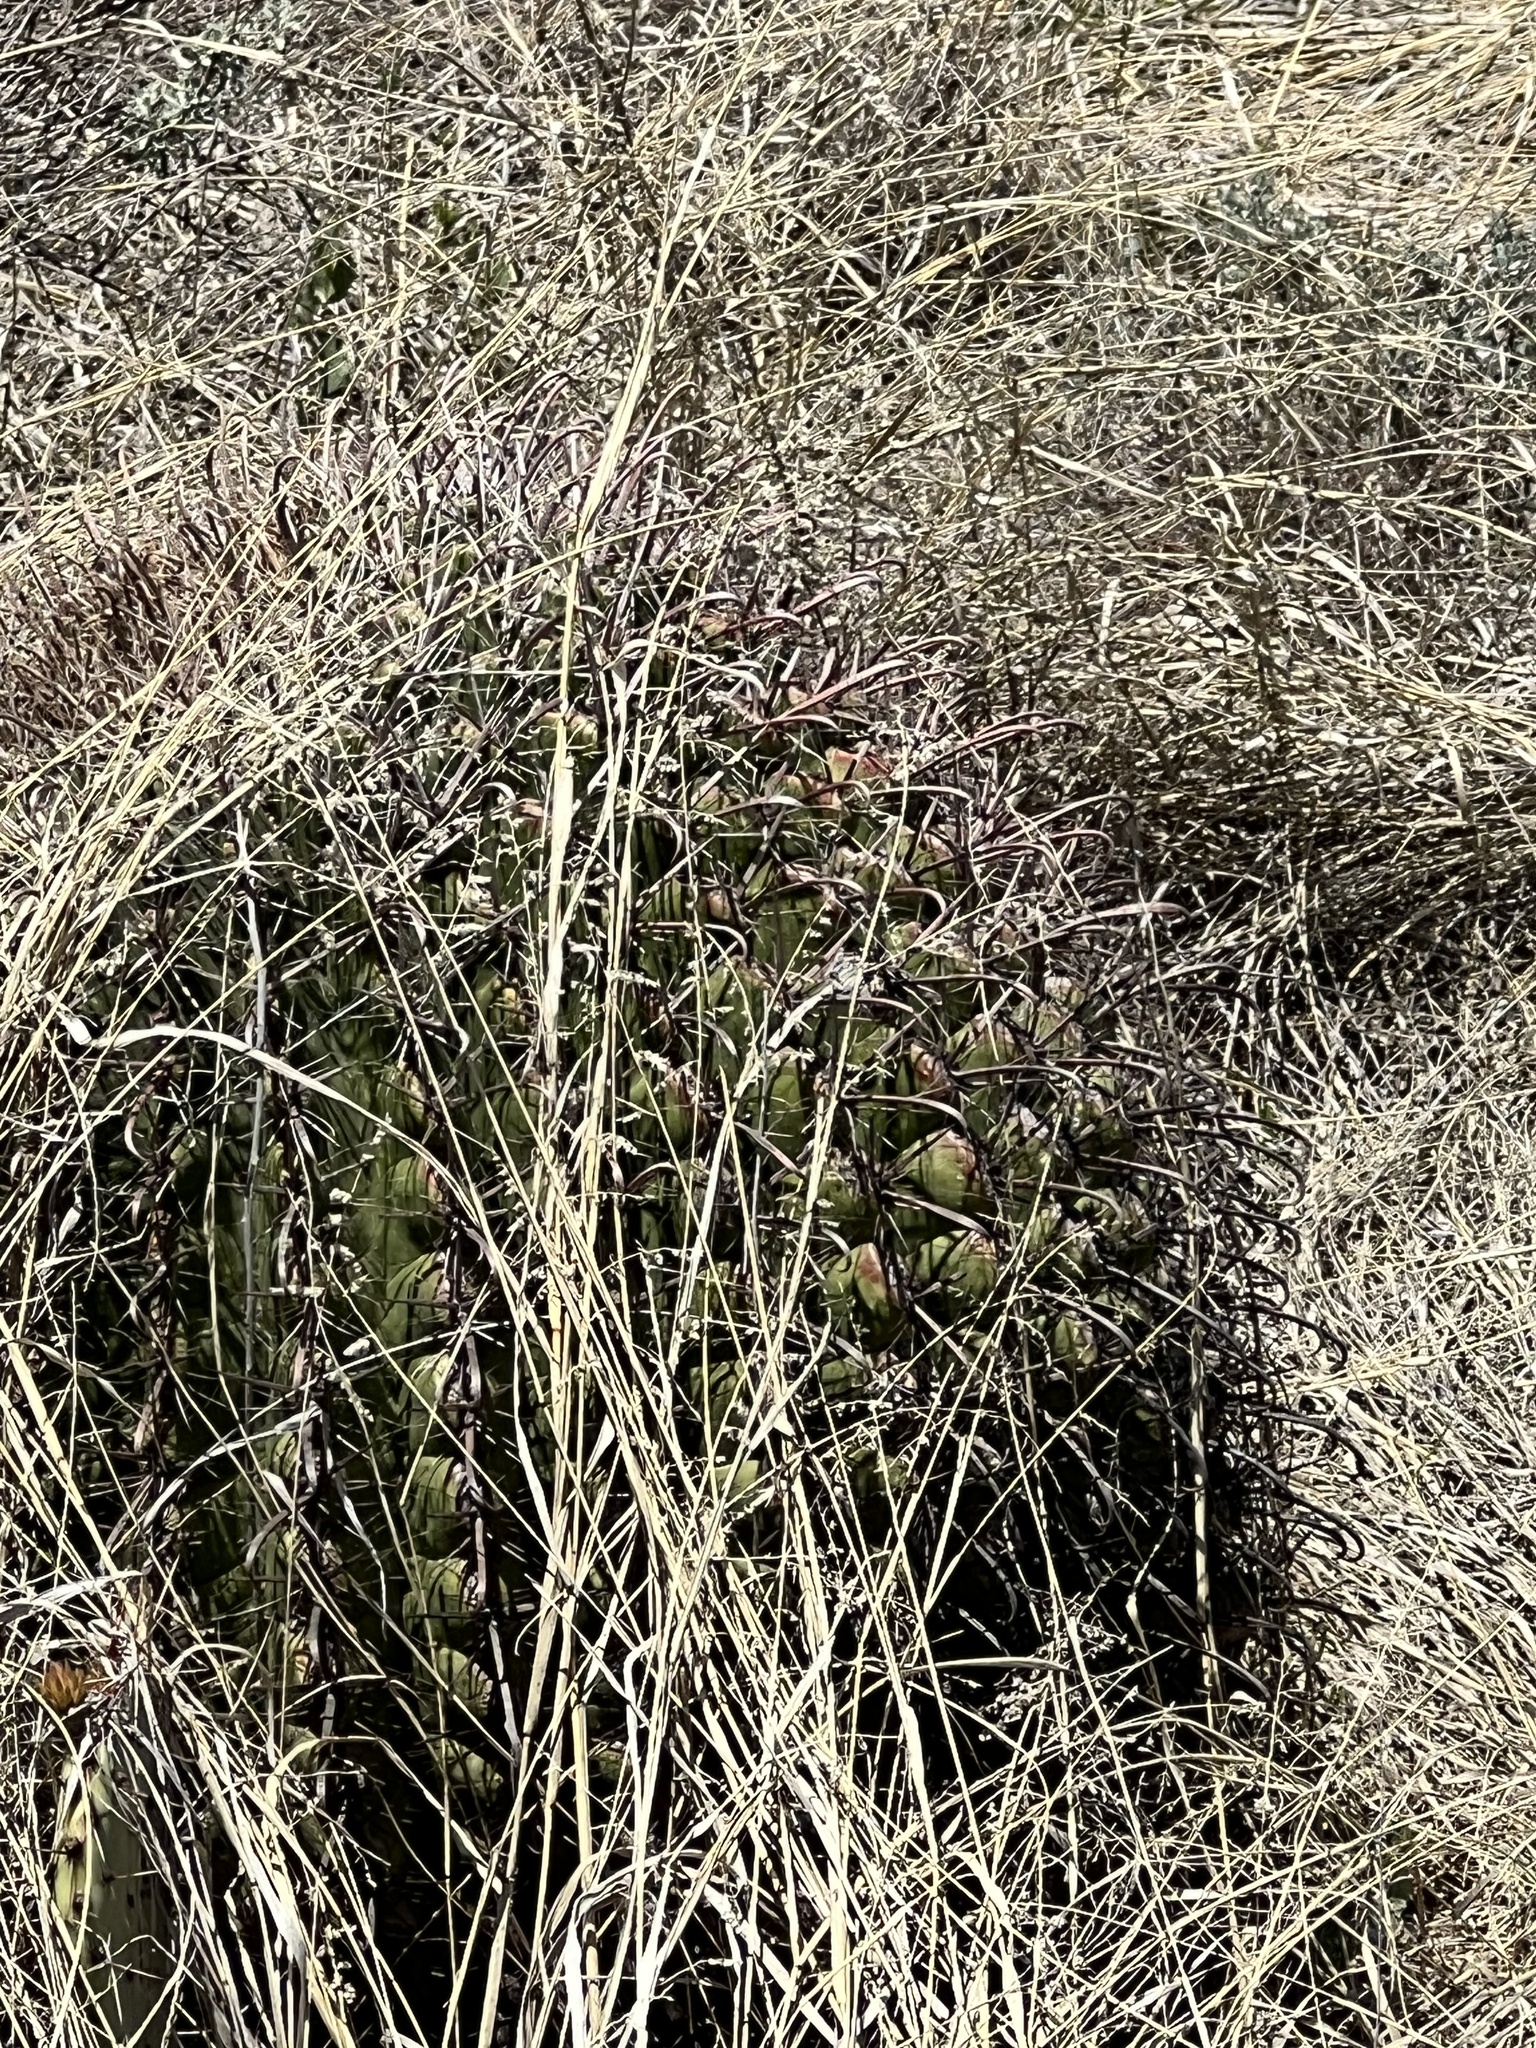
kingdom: Plantae
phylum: Tracheophyta
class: Magnoliopsida
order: Caryophyllales
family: Cactaceae
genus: Ferocactus
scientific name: Ferocactus wislizeni
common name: Candy barrel cactus
